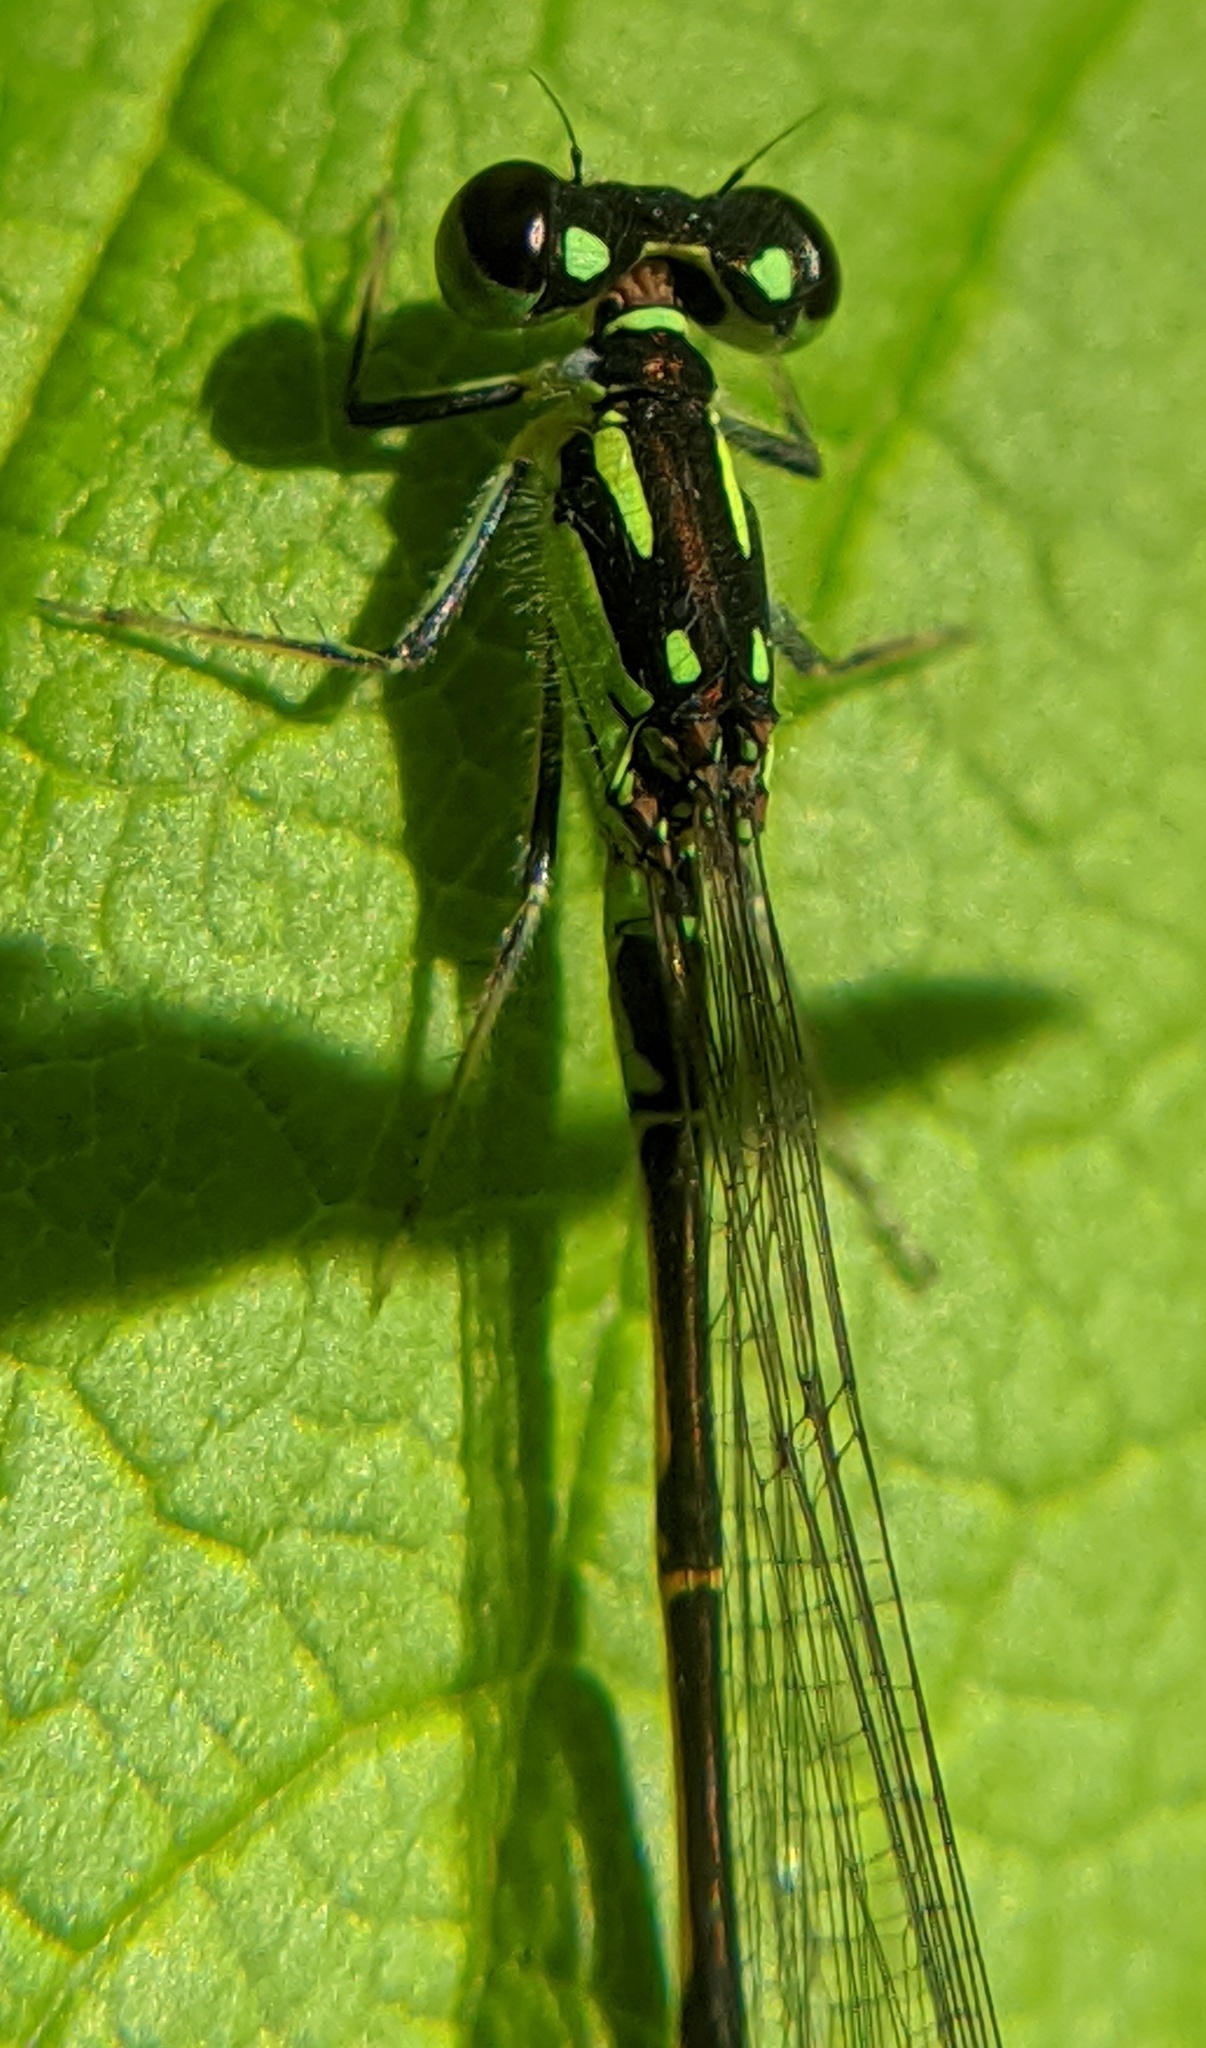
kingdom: Animalia
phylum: Arthropoda
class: Insecta
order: Odonata
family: Coenagrionidae
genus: Ischnura
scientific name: Ischnura posita
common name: Fragile forktail
